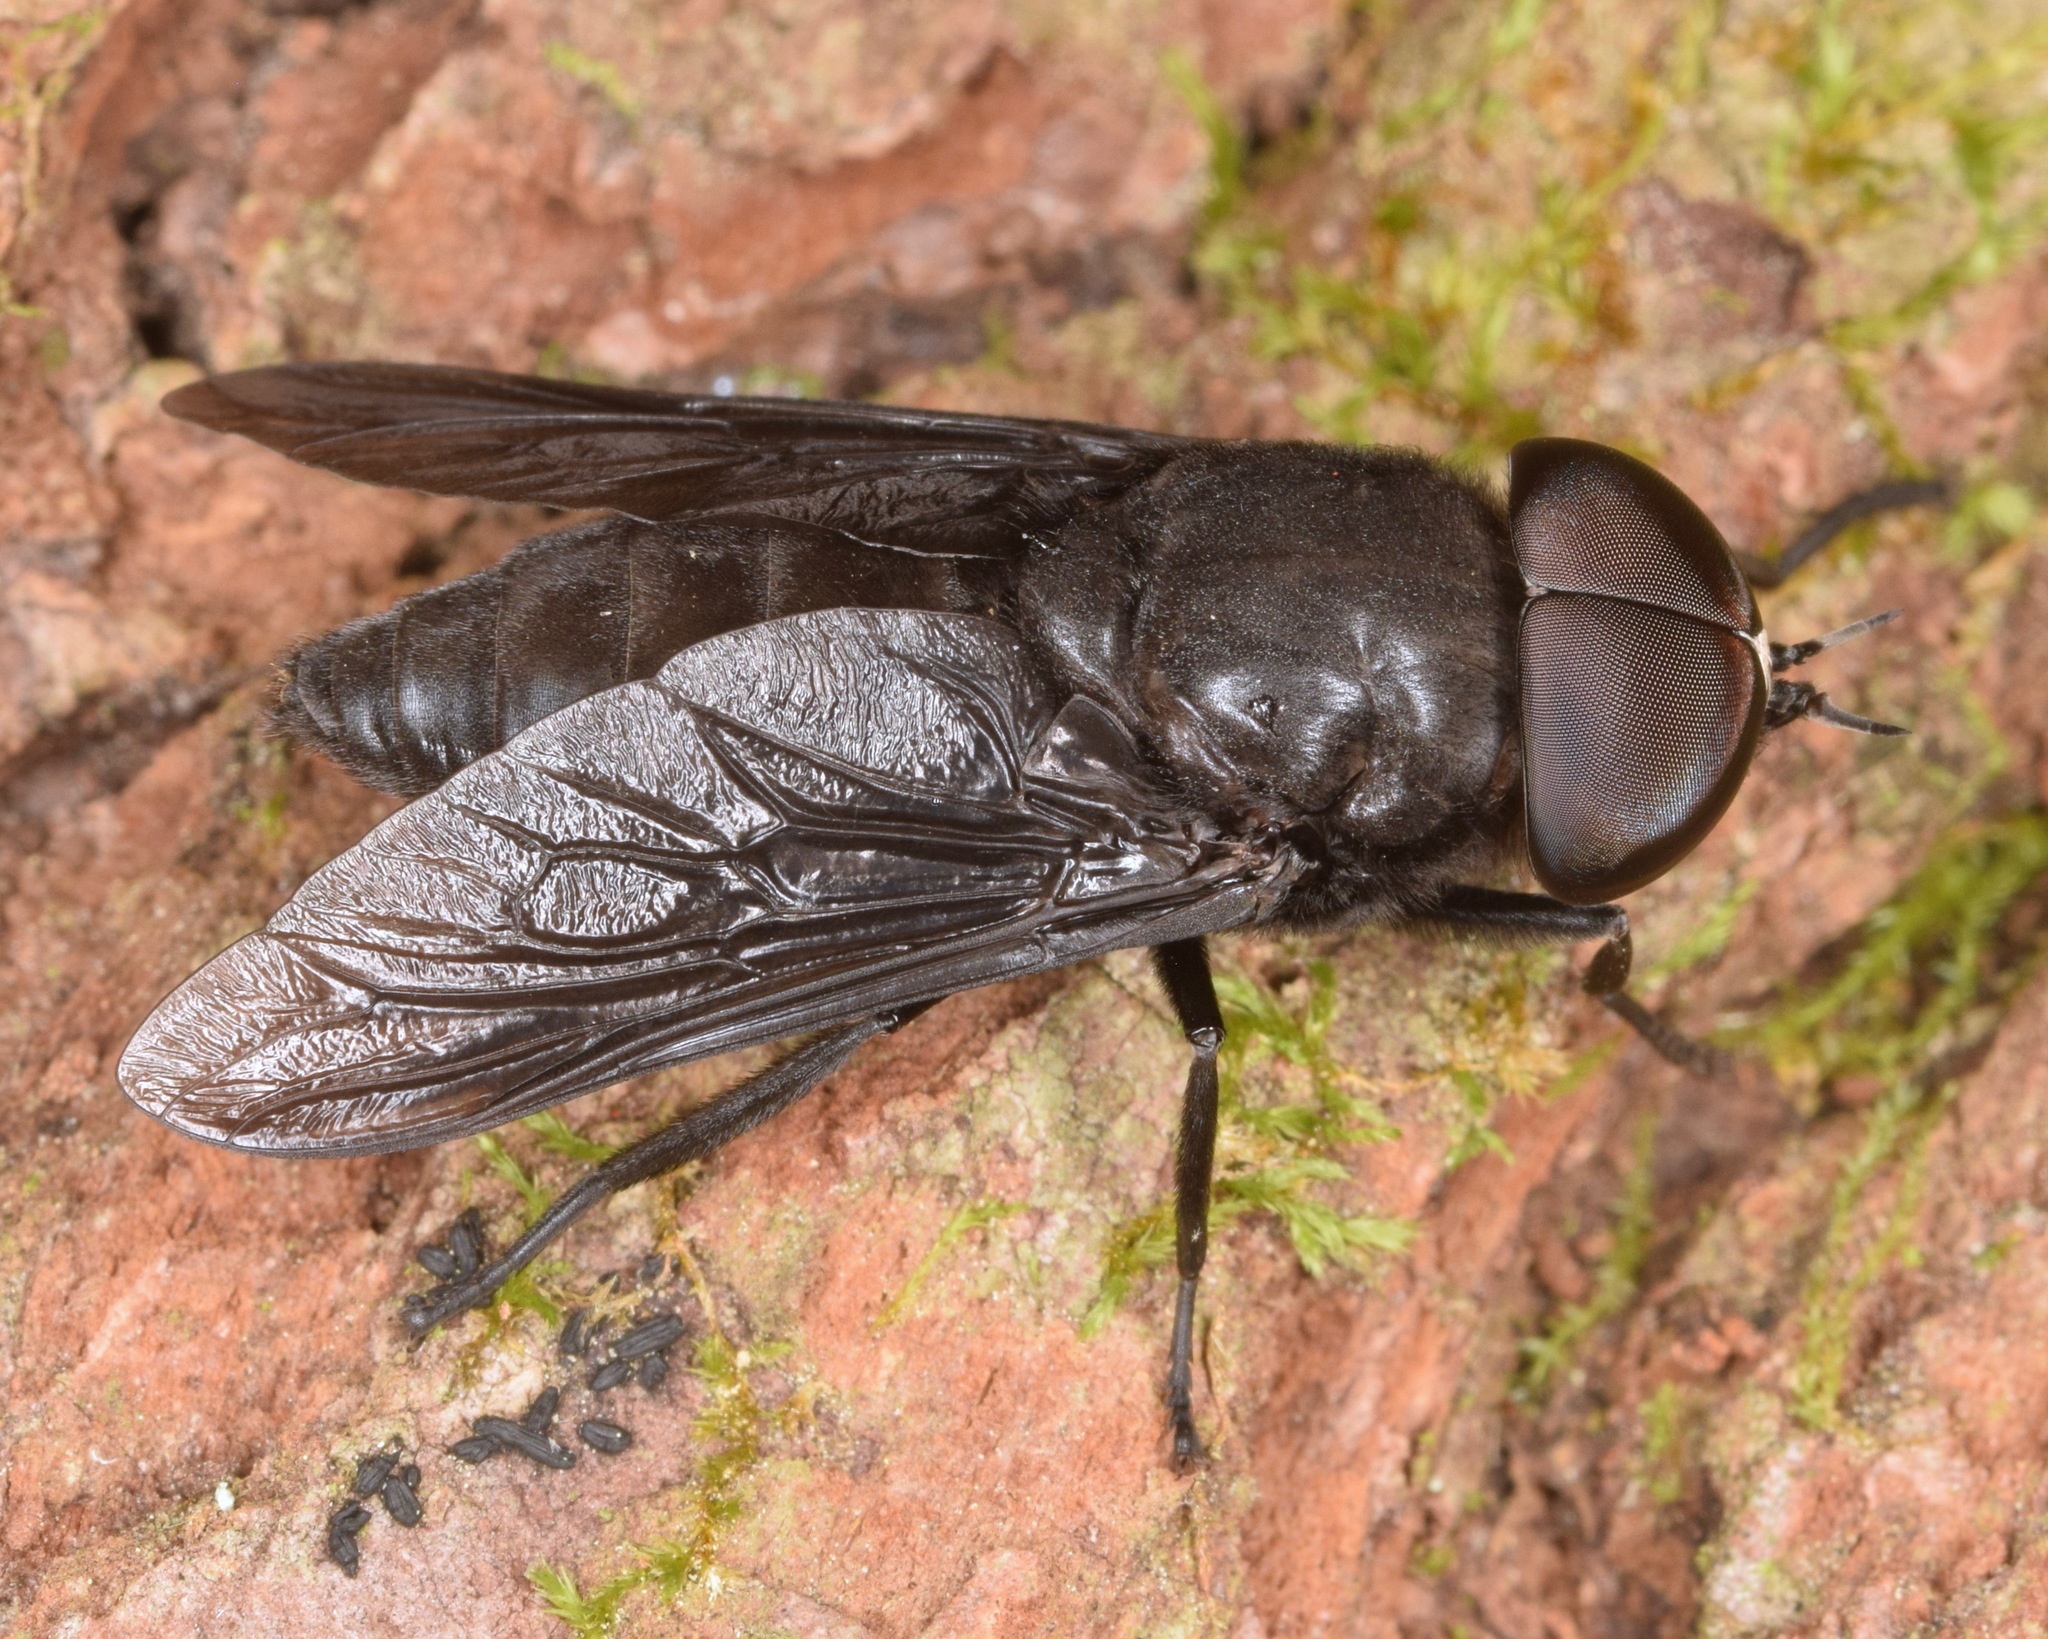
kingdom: Animalia
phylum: Arthropoda
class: Insecta
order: Diptera
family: Tabanidae
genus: Tabanus
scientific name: Tabanus atratus
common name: Black horse fly
